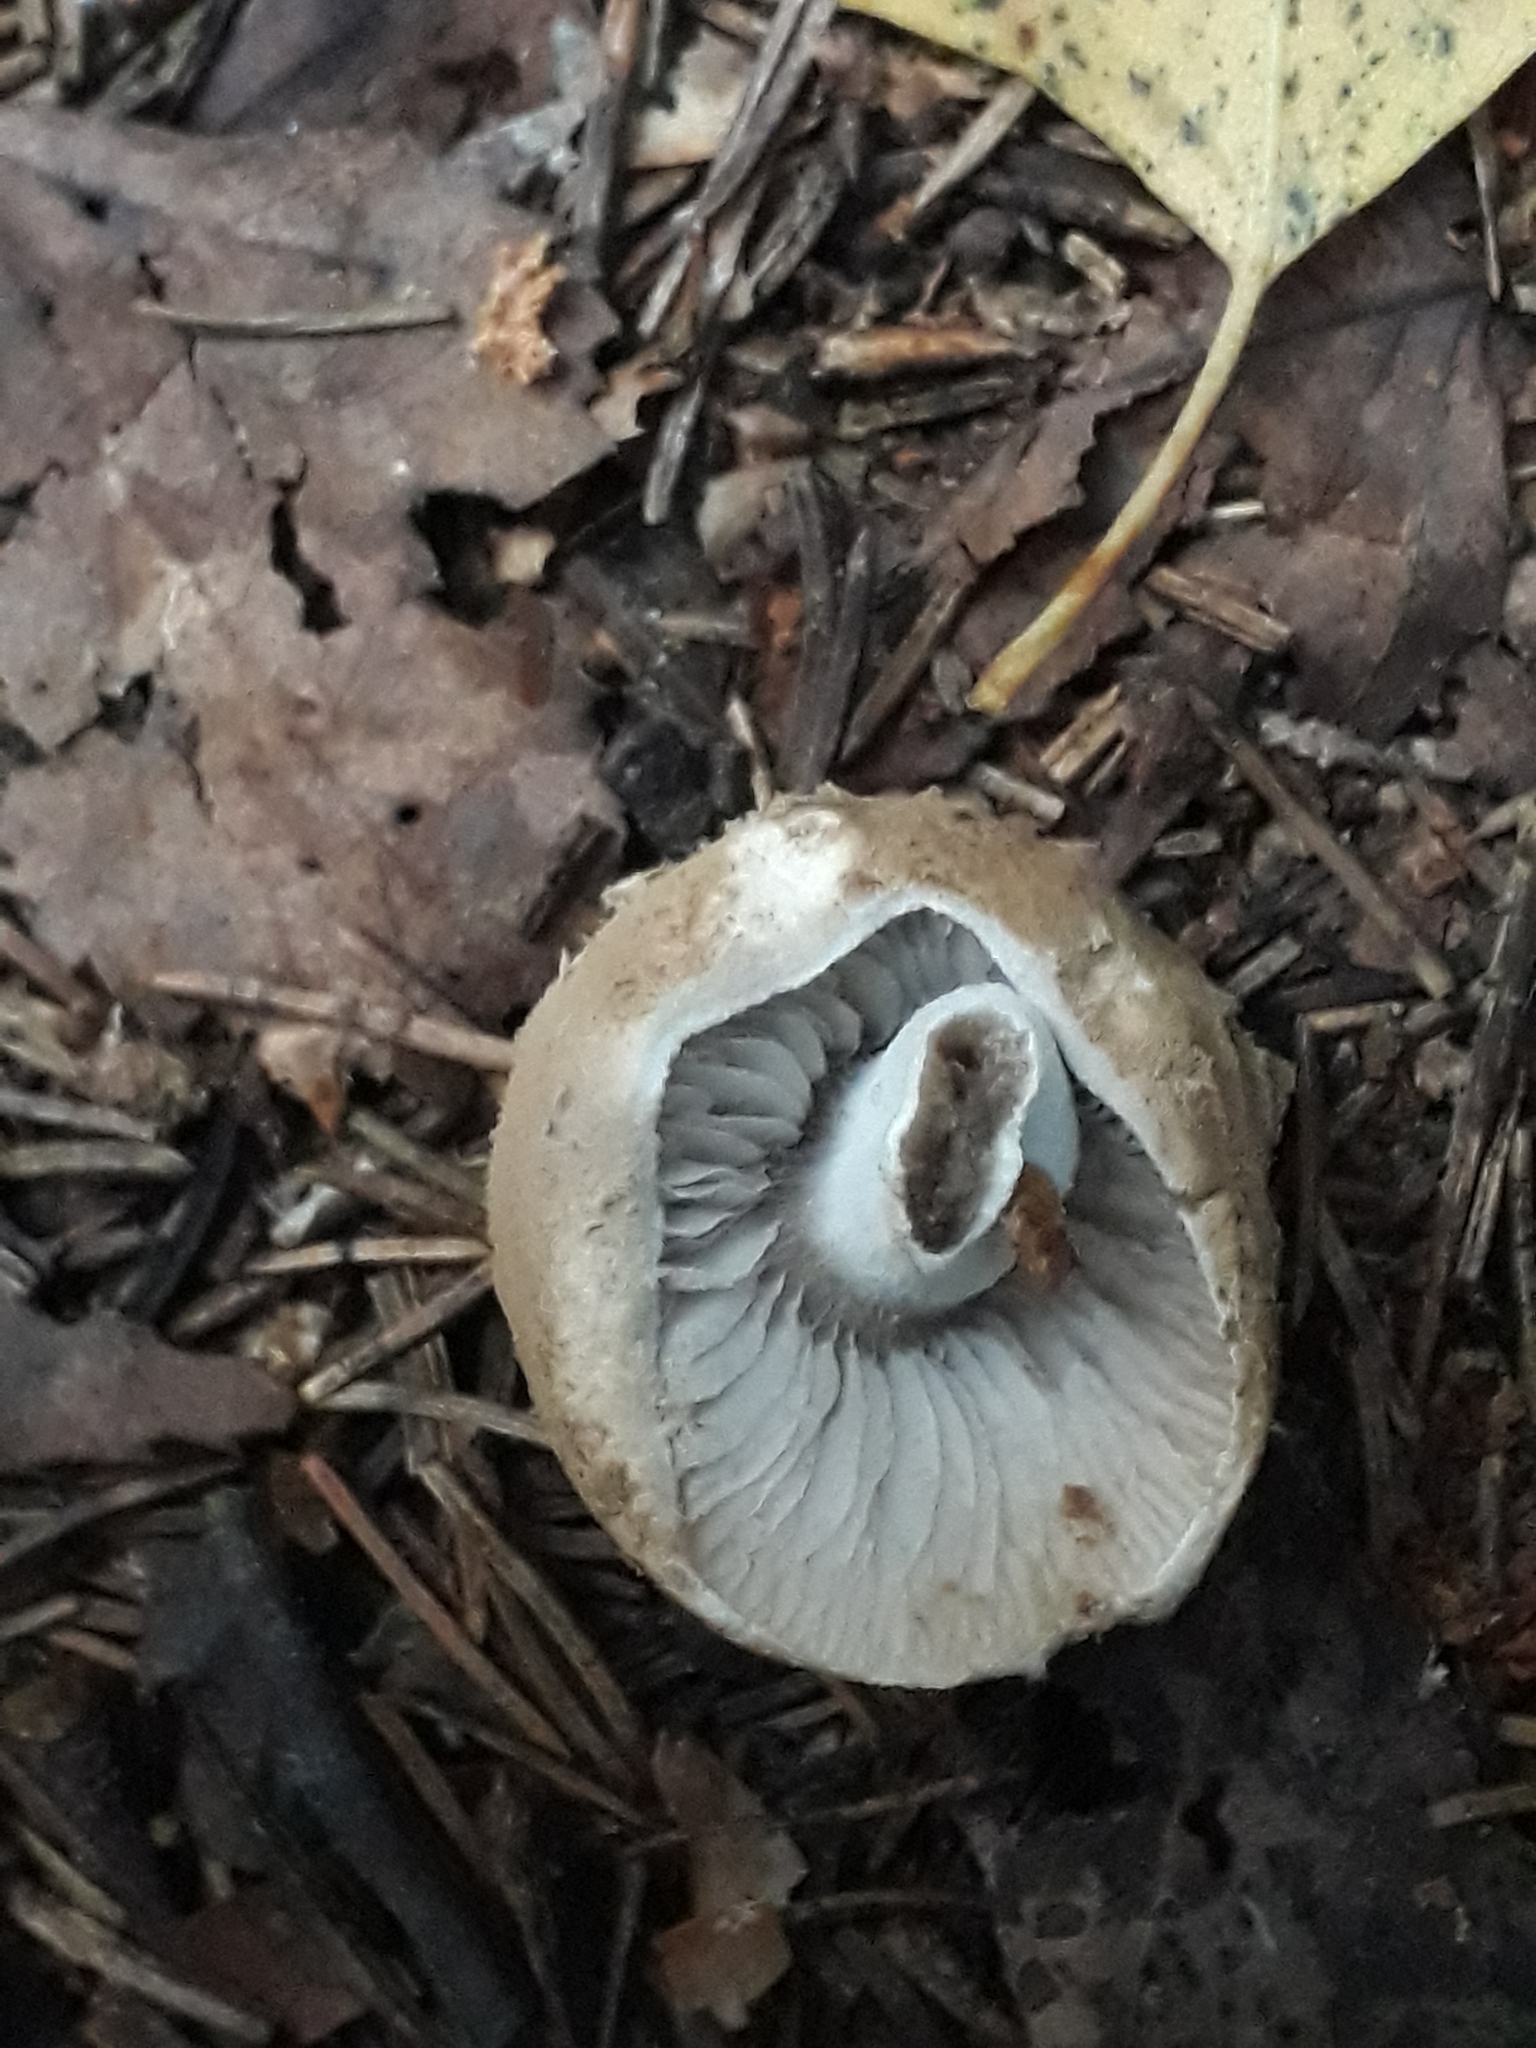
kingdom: Fungi
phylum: Basidiomycota
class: Agaricomycetes
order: Agaricales
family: Lyophyllaceae
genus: Asterophora
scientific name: Asterophora lycoperdoides
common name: Pick-a-back toadstool
